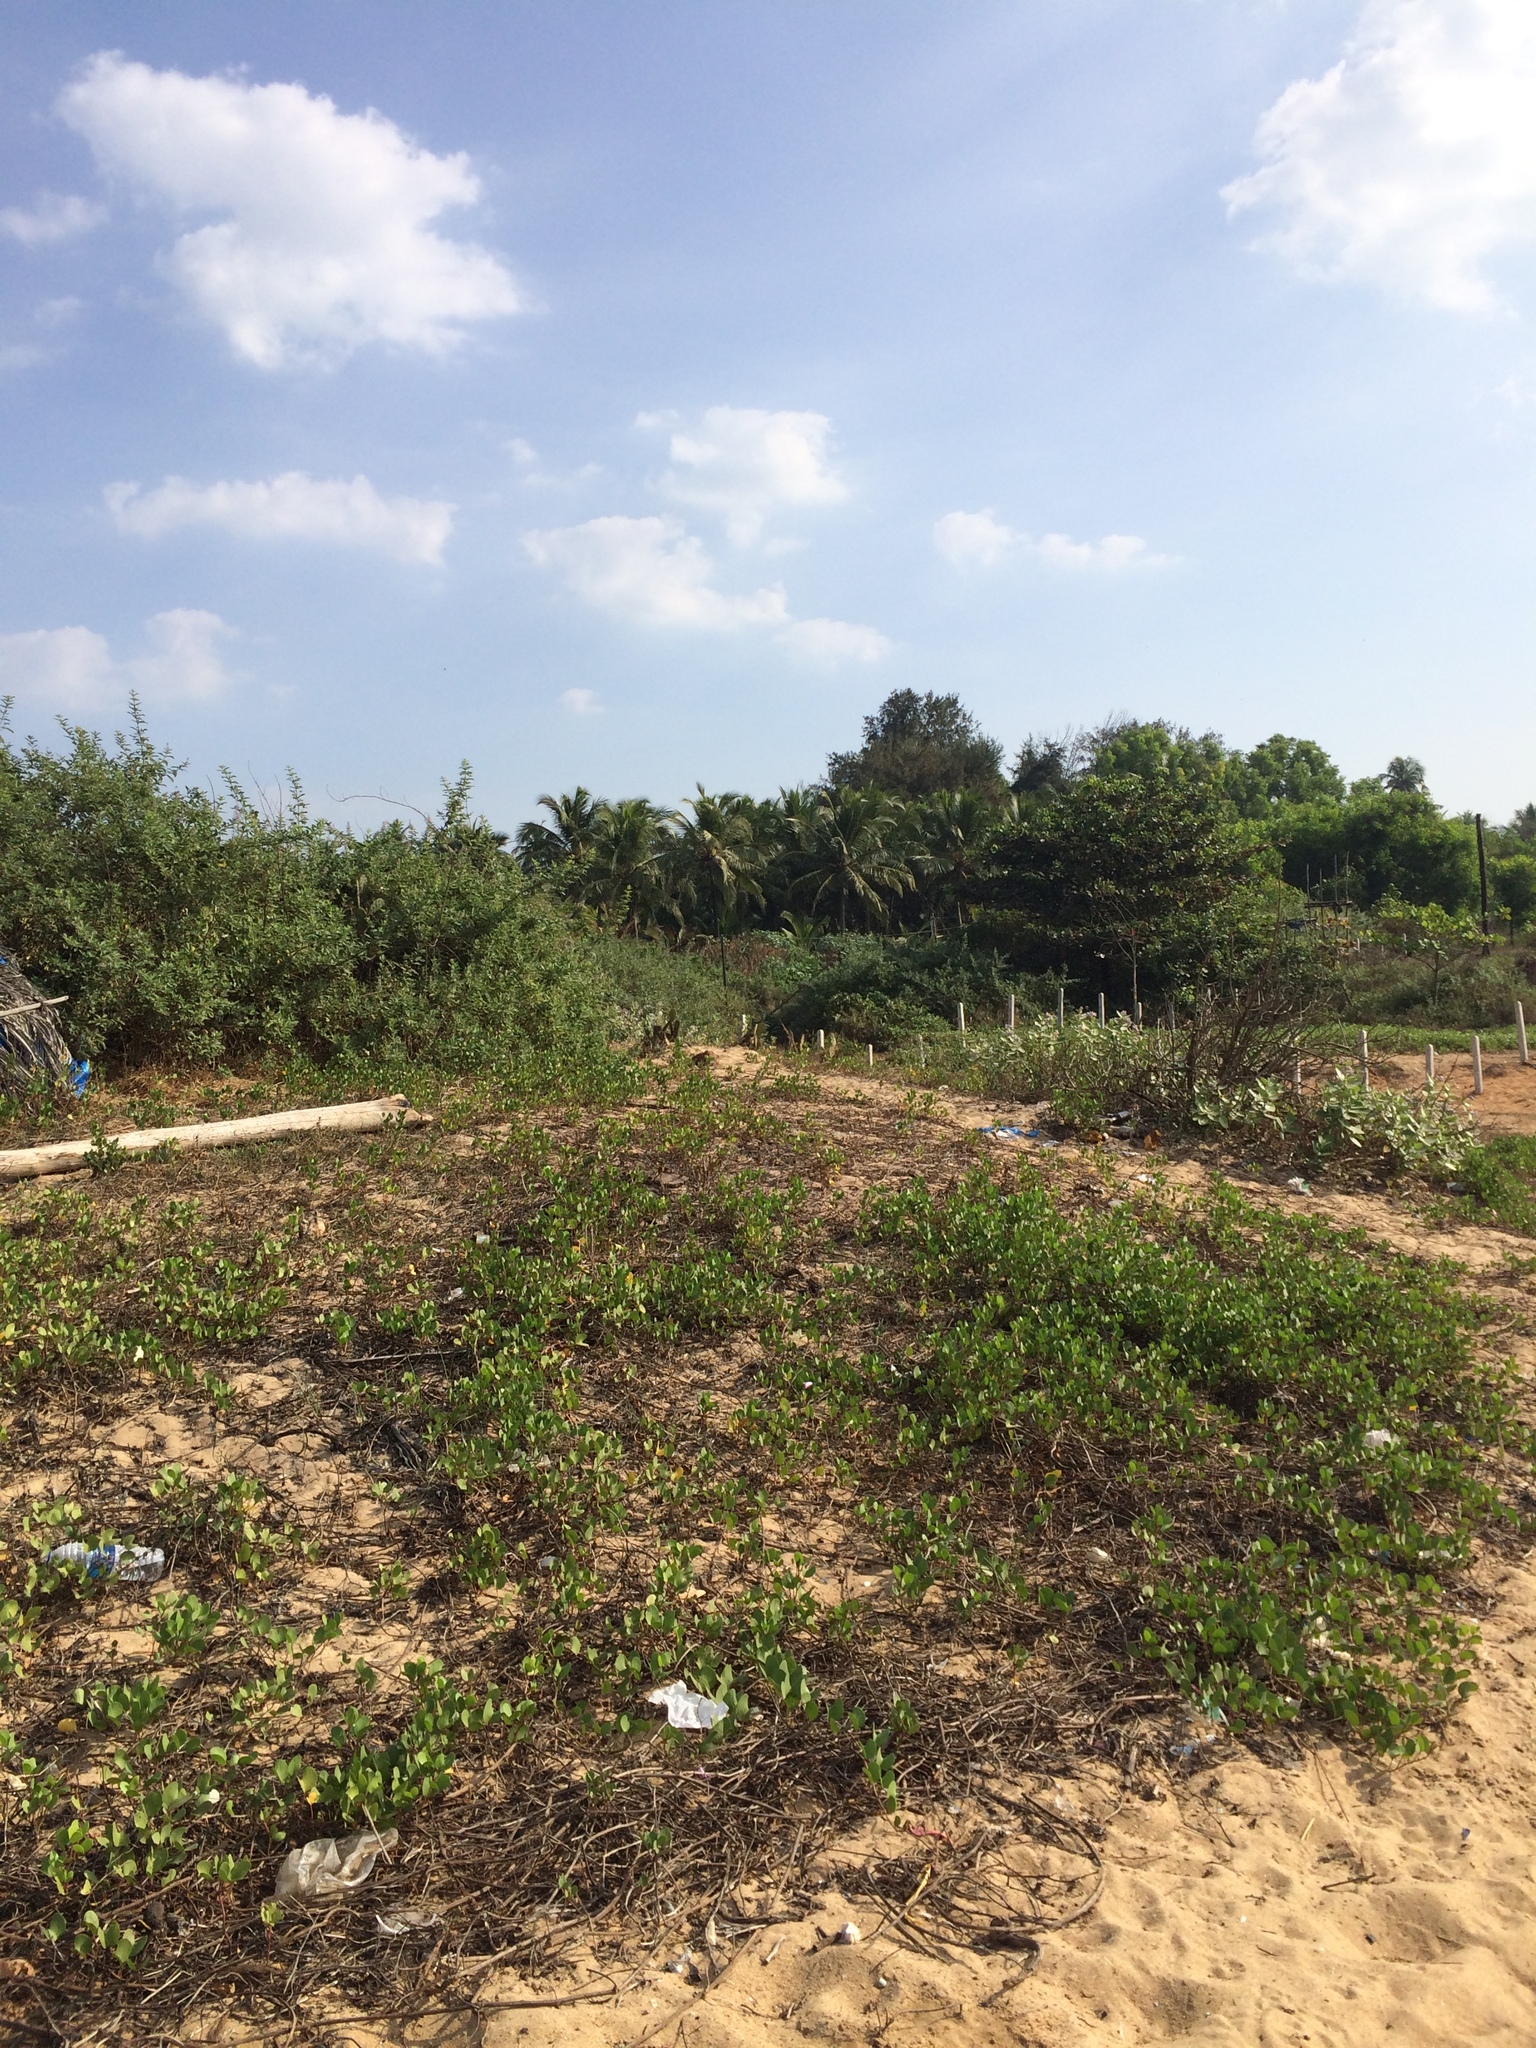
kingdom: Plantae
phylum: Tracheophyta
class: Magnoliopsida
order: Solanales
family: Convolvulaceae
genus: Ipomoea
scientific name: Ipomoea pes-caprae
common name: Beach morning glory
